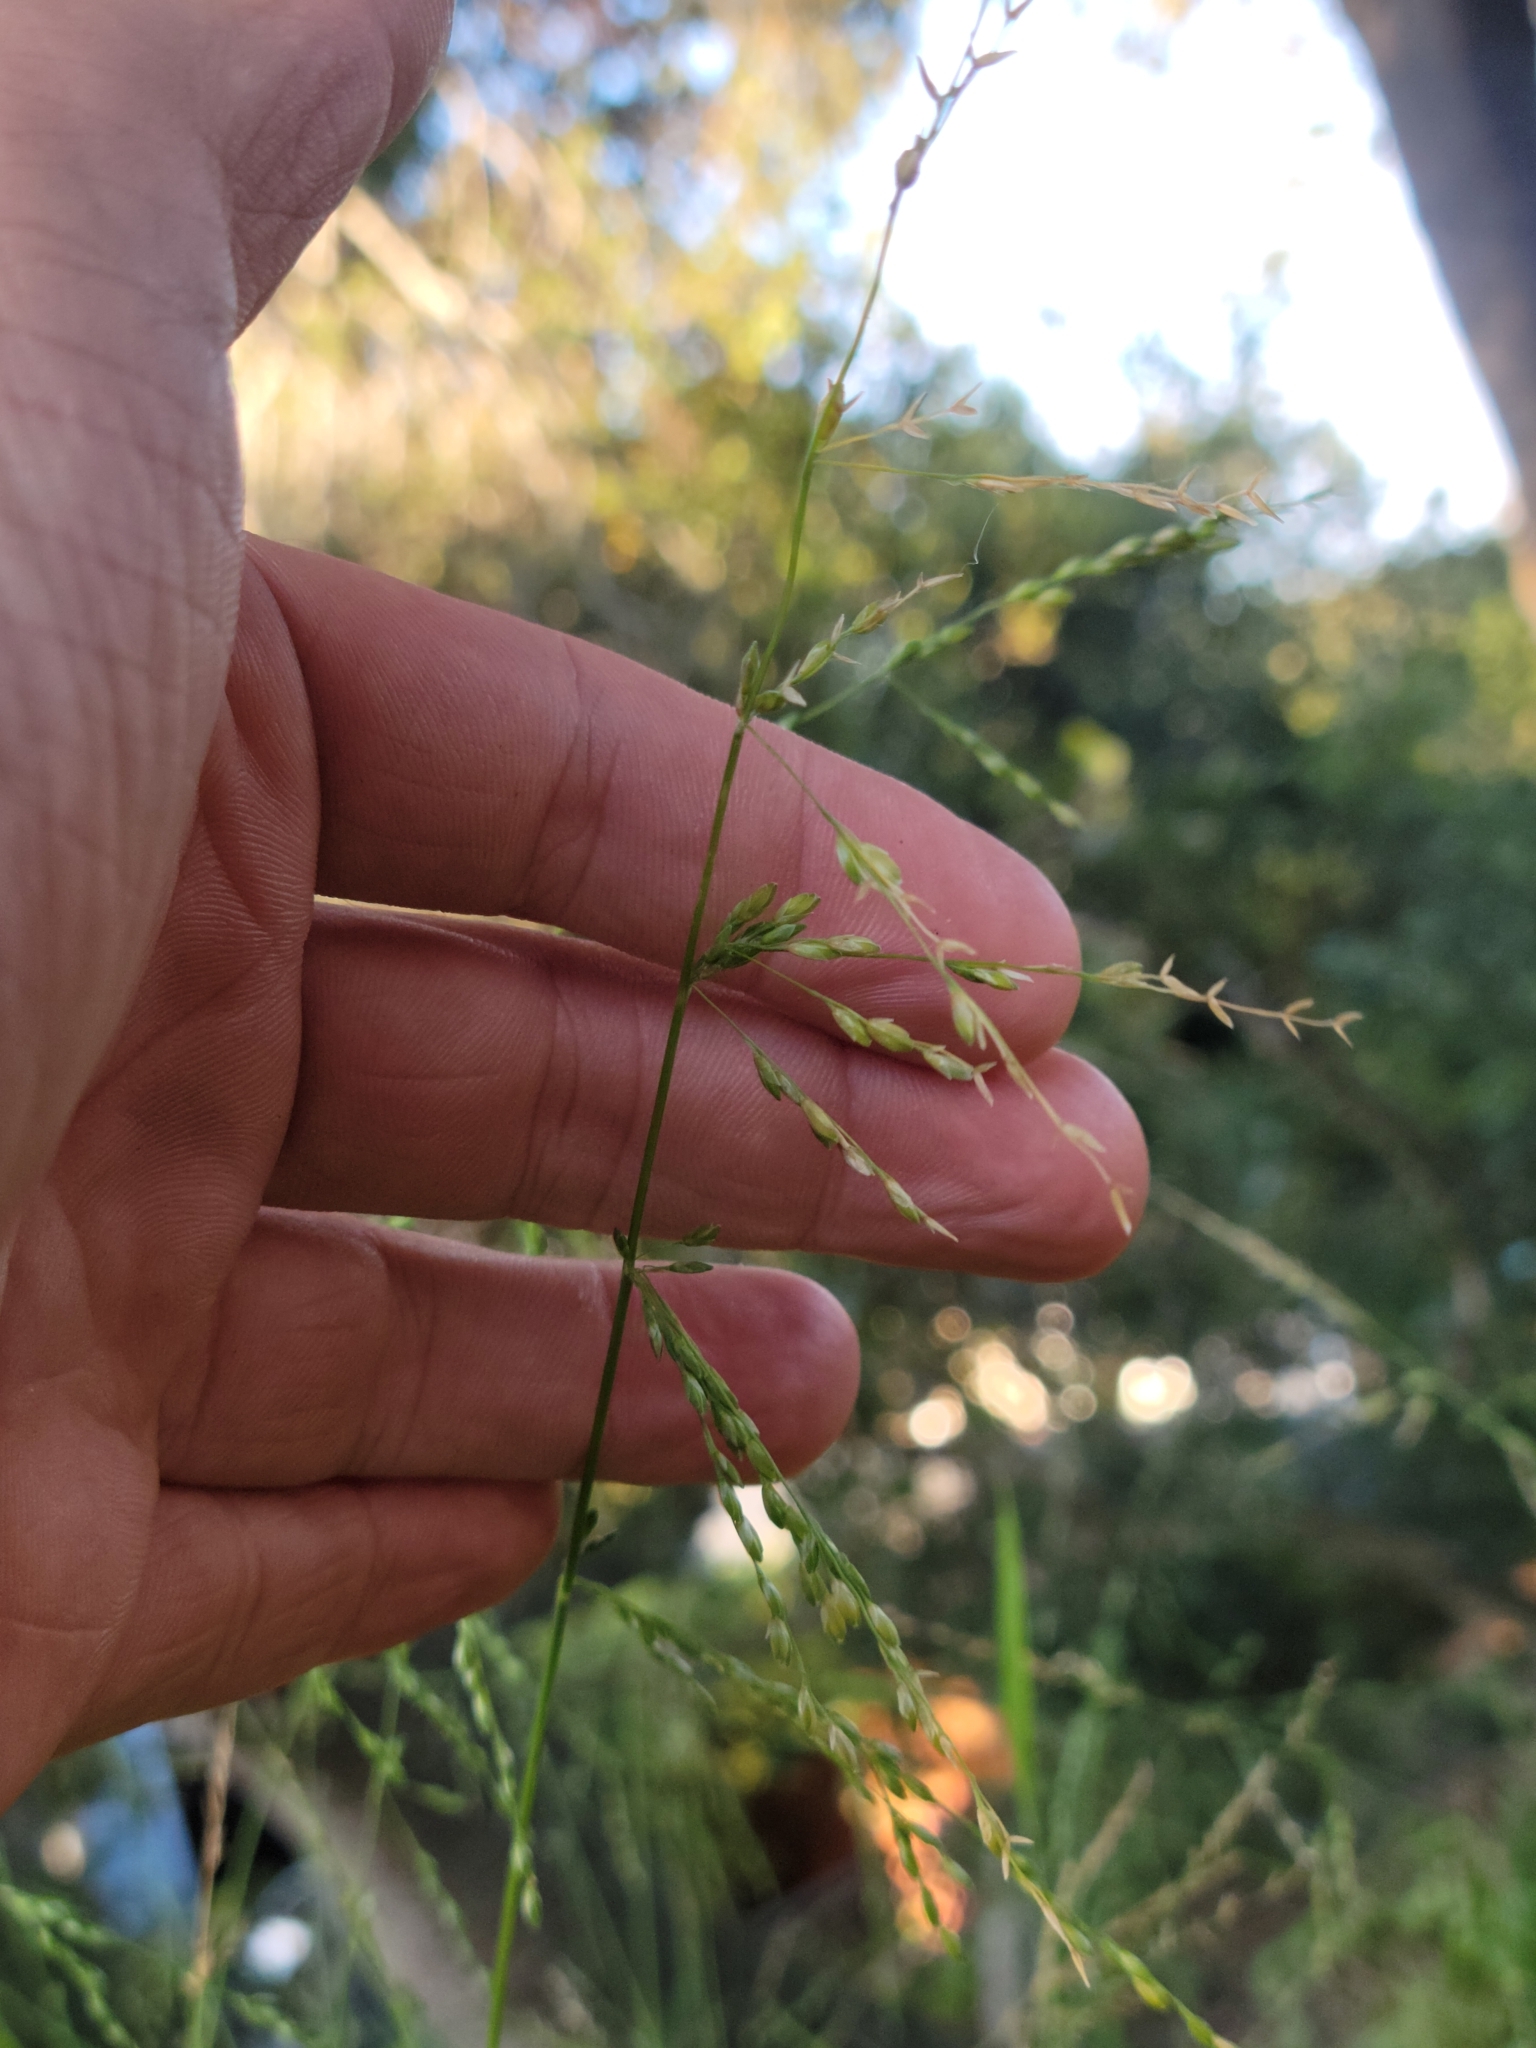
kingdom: Plantae
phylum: Tracheophyta
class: Liliopsida
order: Poales
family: Poaceae
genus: Ehrharta
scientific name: Ehrharta erecta
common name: Panic veldtgrass
